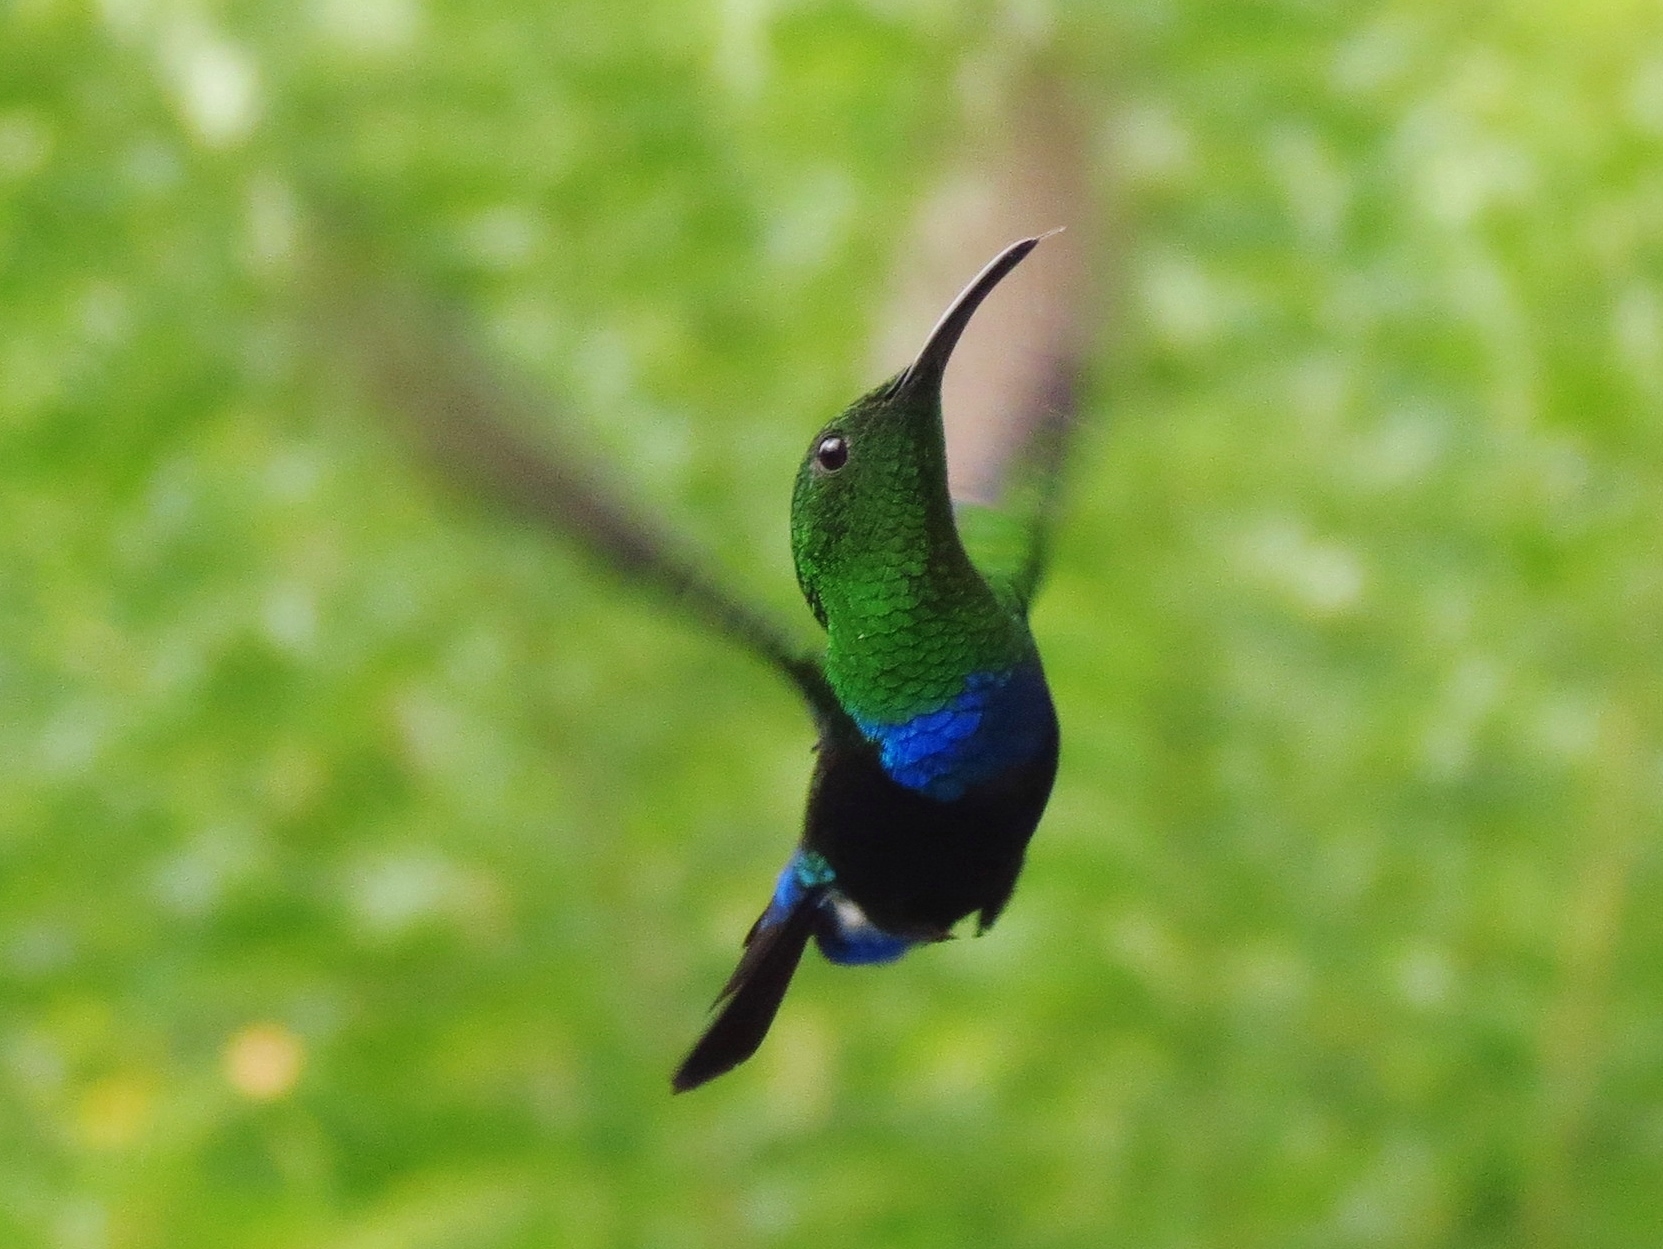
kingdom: Animalia
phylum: Chordata
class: Aves
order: Apodiformes
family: Trochilidae
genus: Eulampis
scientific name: Eulampis holosericeus
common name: Green-throated carib
